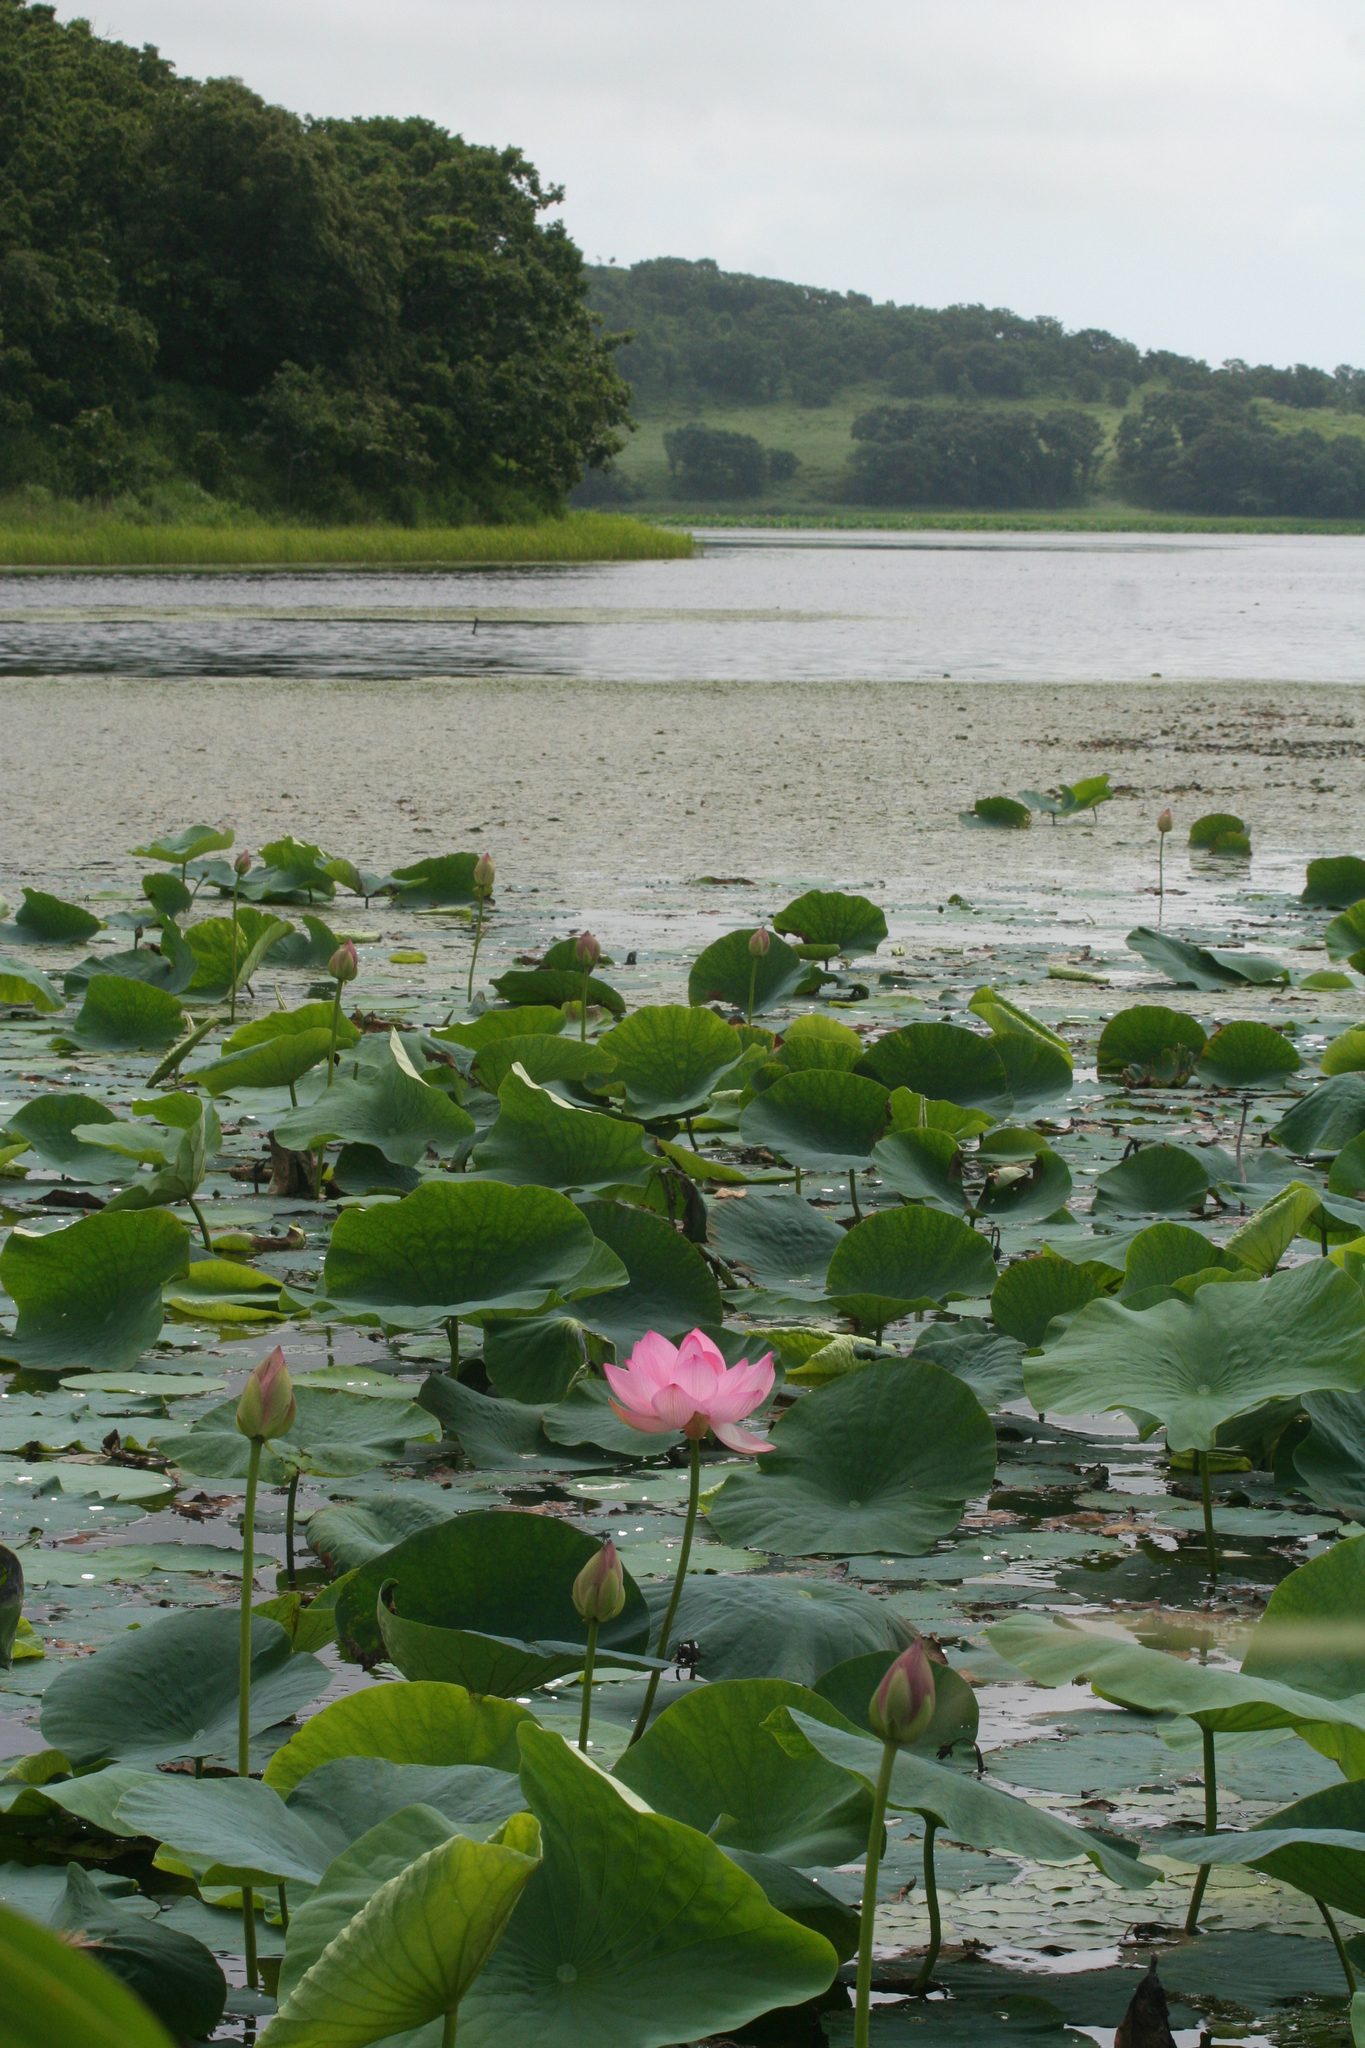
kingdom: Plantae
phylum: Tracheophyta
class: Magnoliopsida
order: Proteales
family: Nelumbonaceae
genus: Nelumbo
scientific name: Nelumbo nucifera
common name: Sacred lotus
